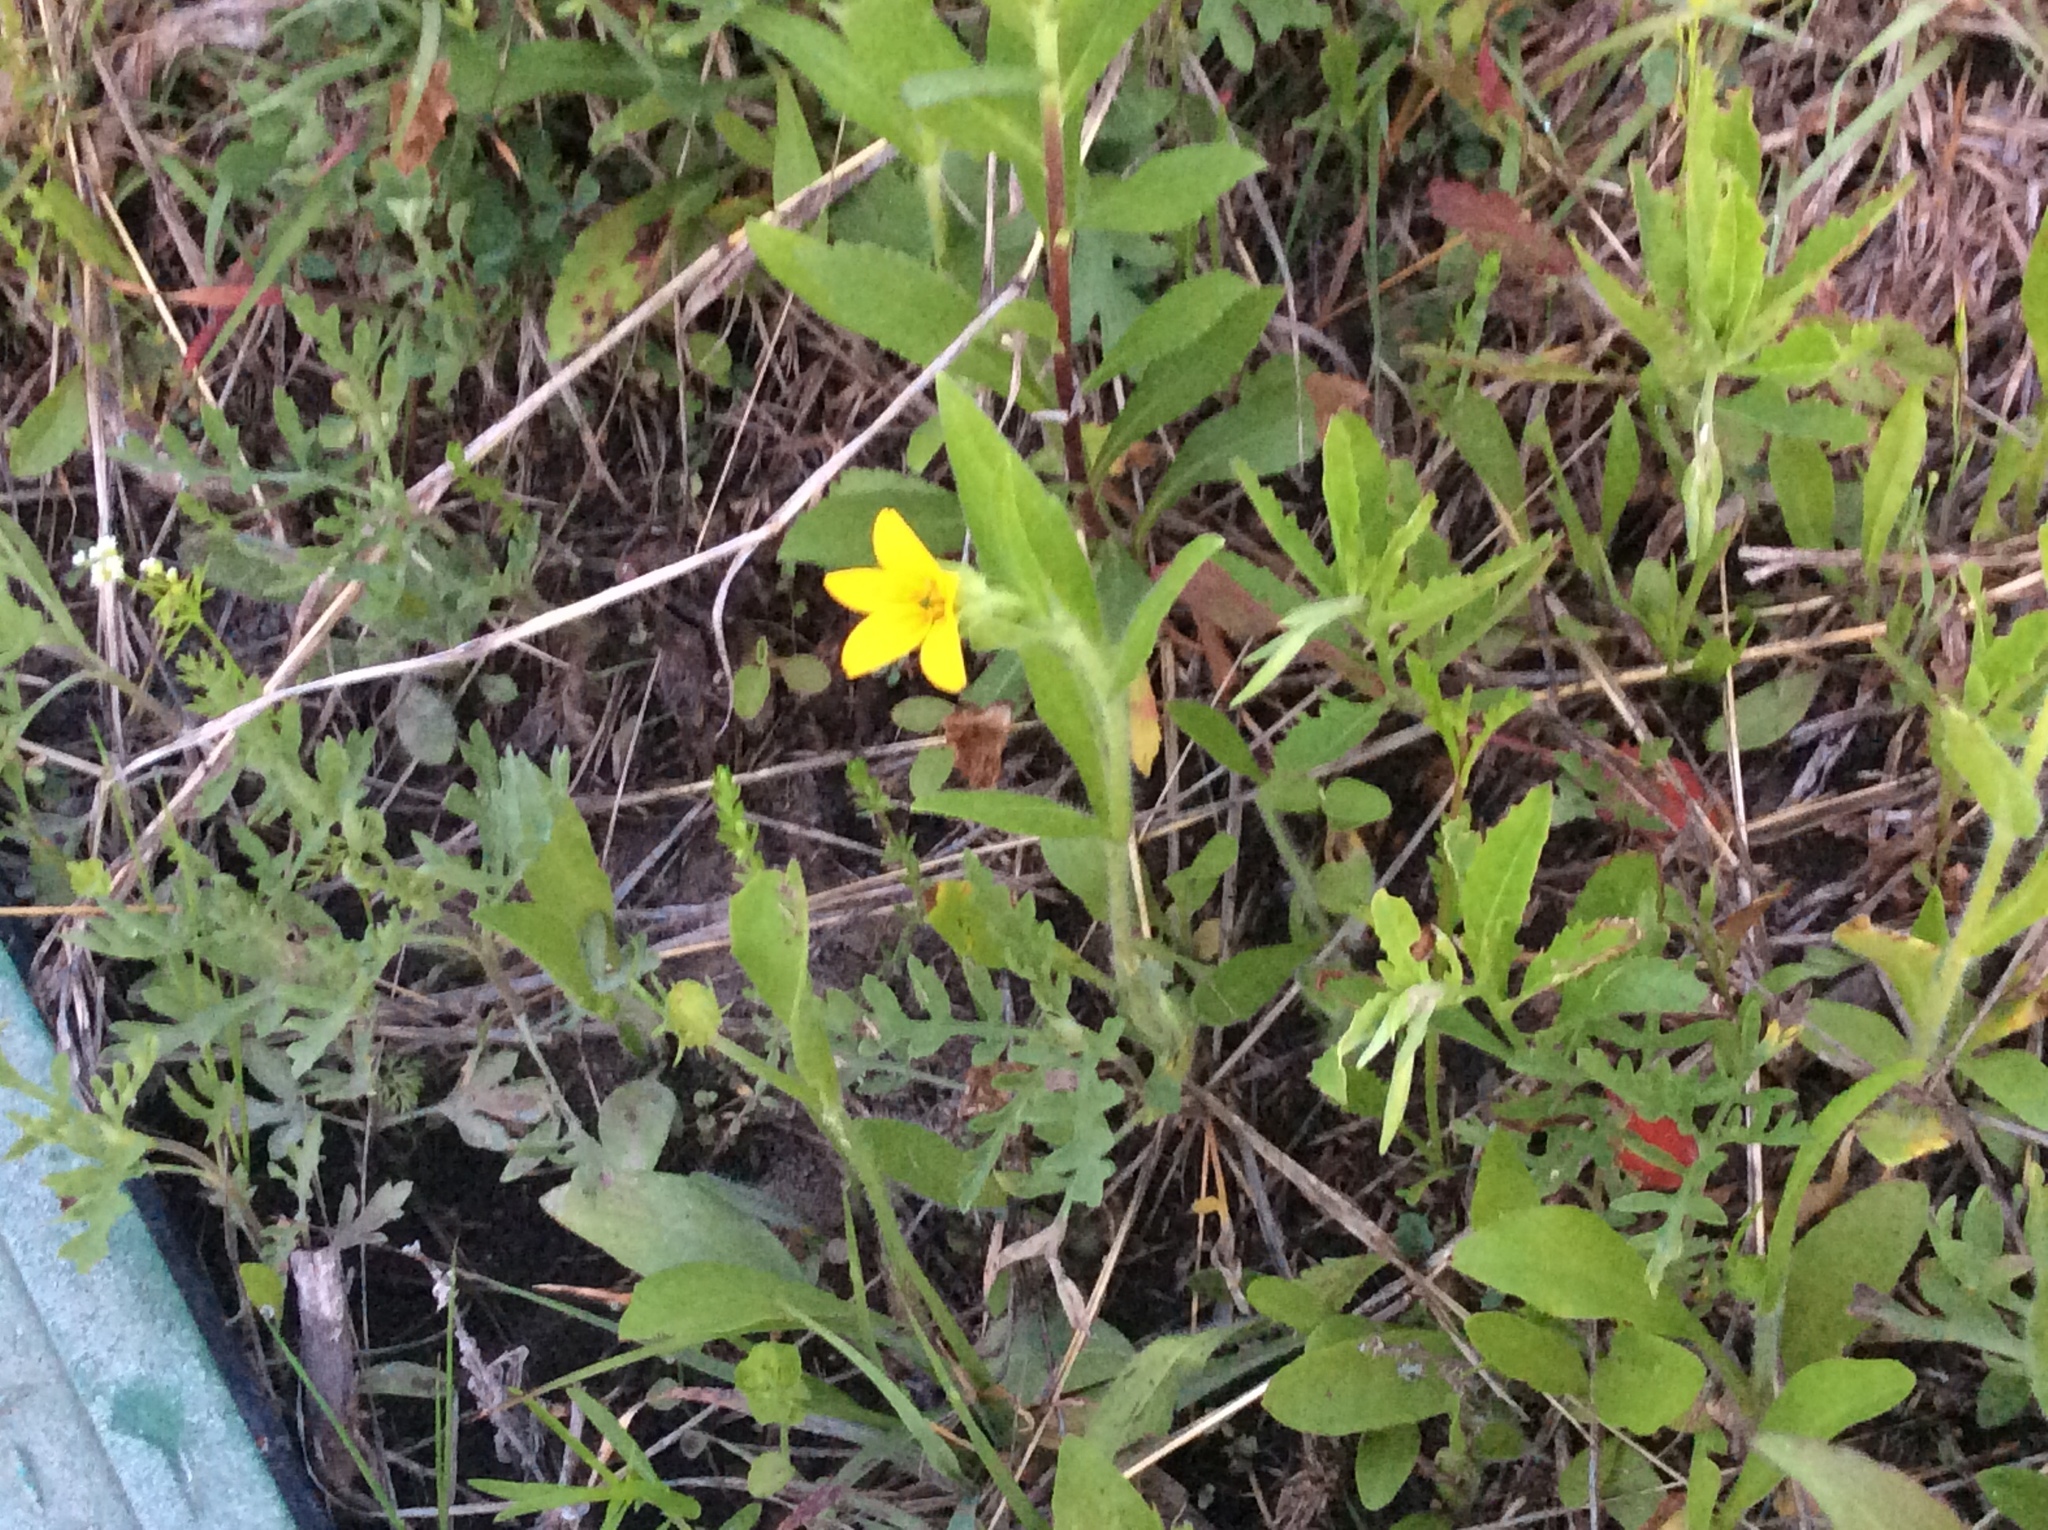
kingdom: Plantae
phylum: Tracheophyta
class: Magnoliopsida
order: Asterales
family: Asteraceae
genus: Lindheimera
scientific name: Lindheimera texana
